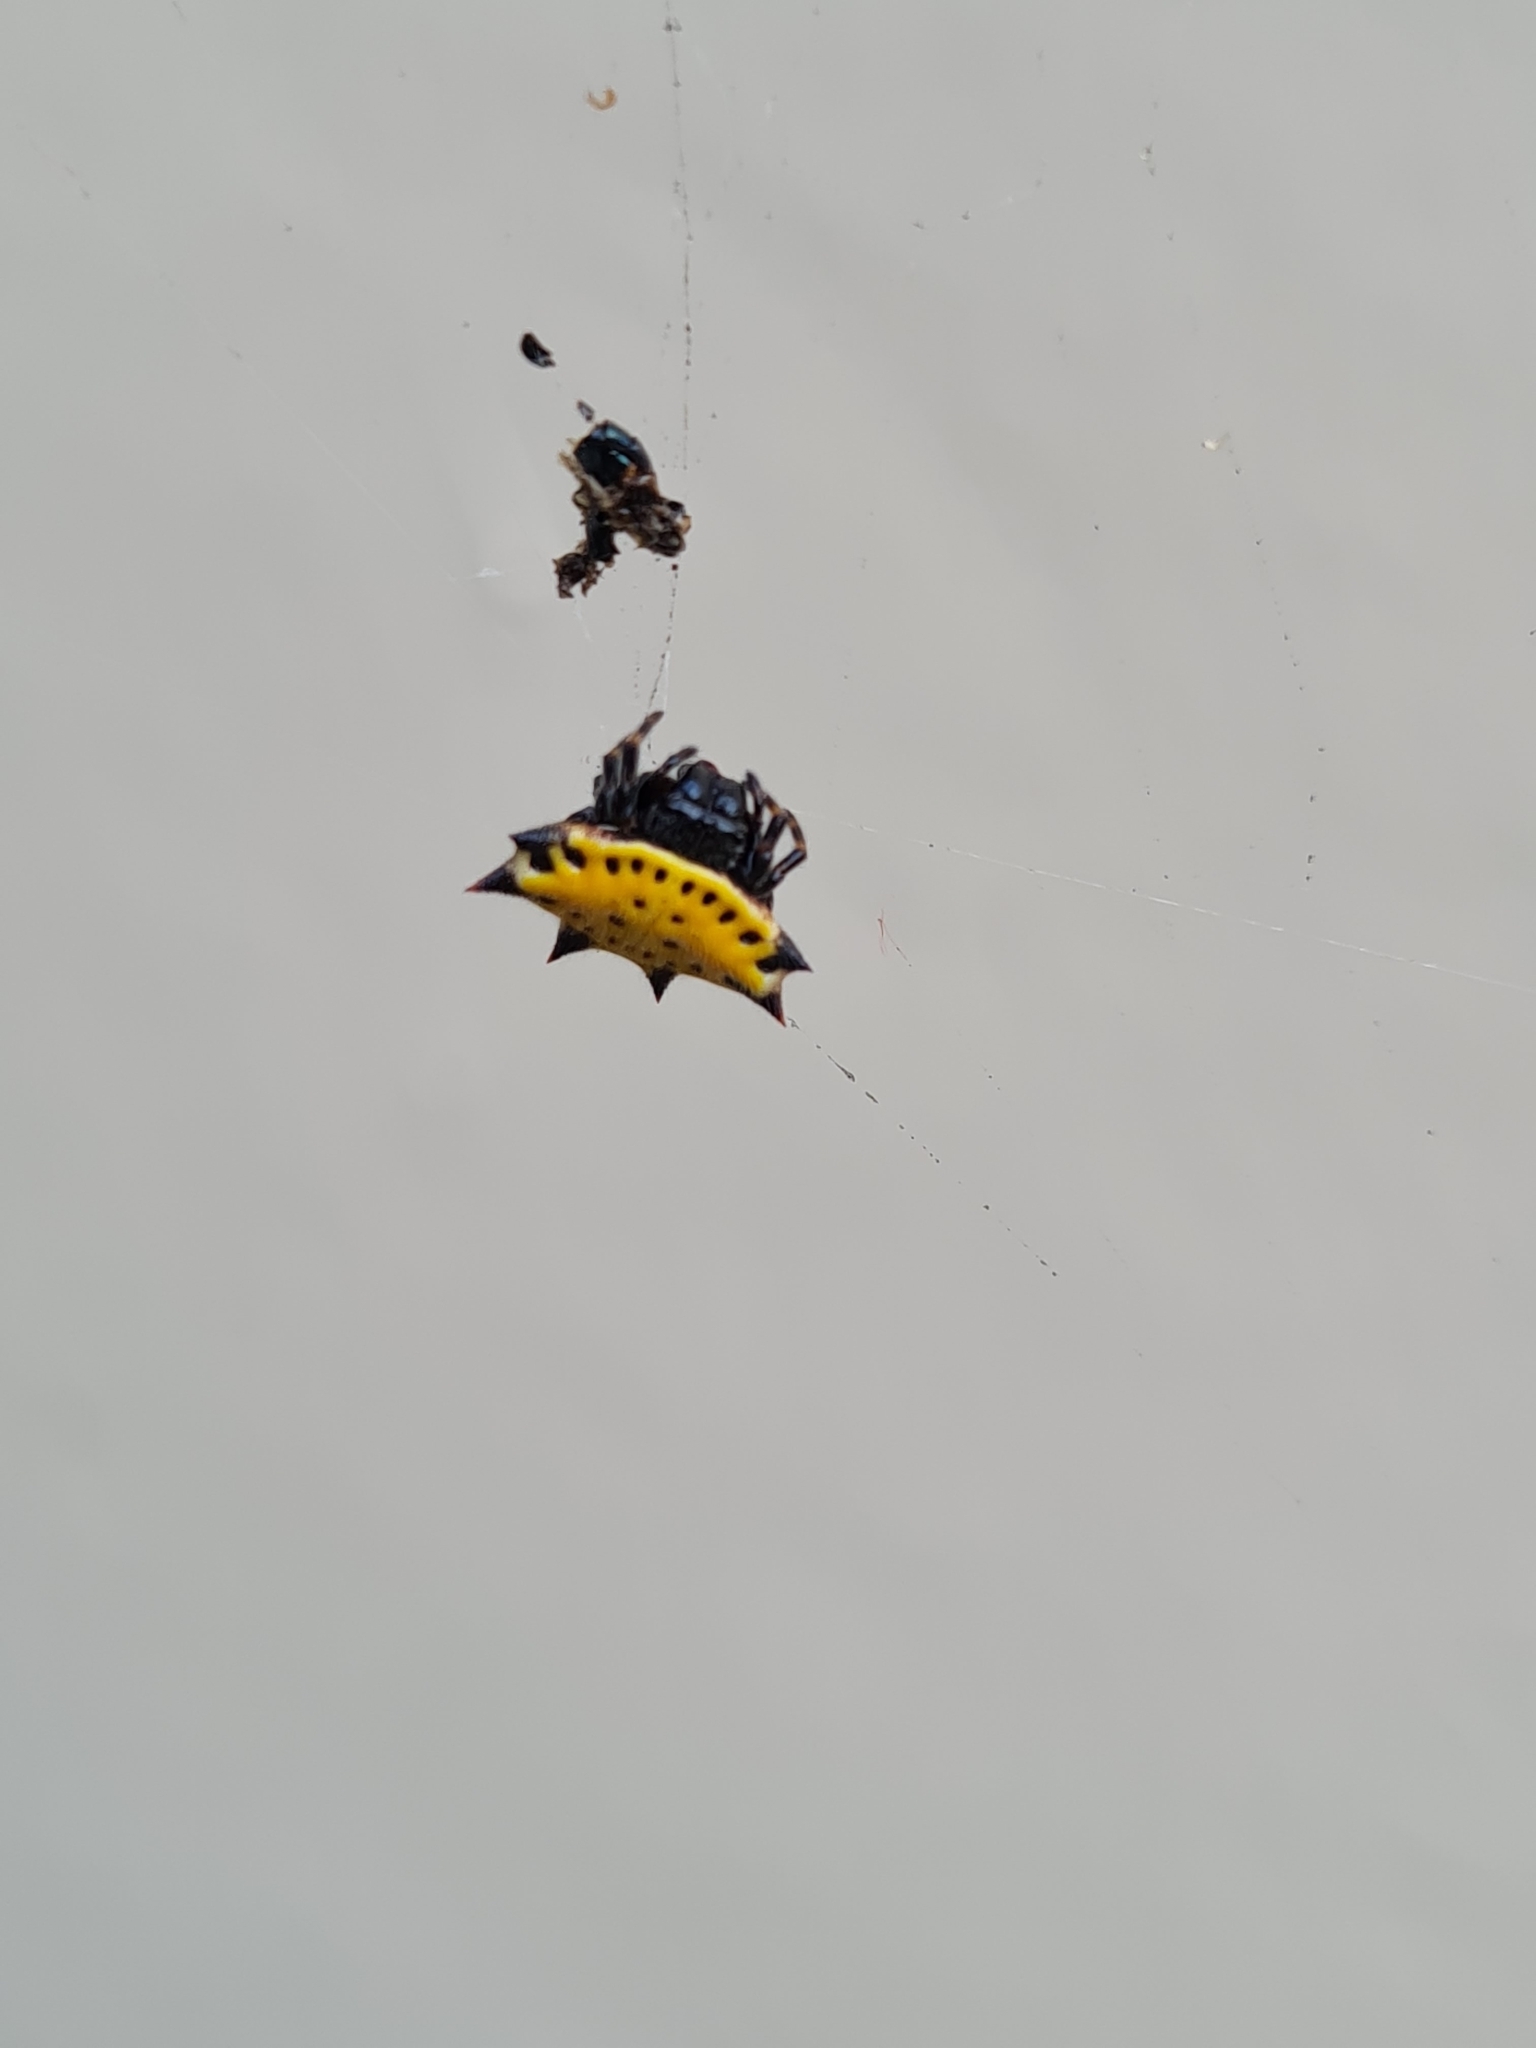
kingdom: Animalia
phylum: Arthropoda
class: Arachnida
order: Araneae
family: Araneidae
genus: Gasteracantha
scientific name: Gasteracantha cancriformis
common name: Orb weavers
